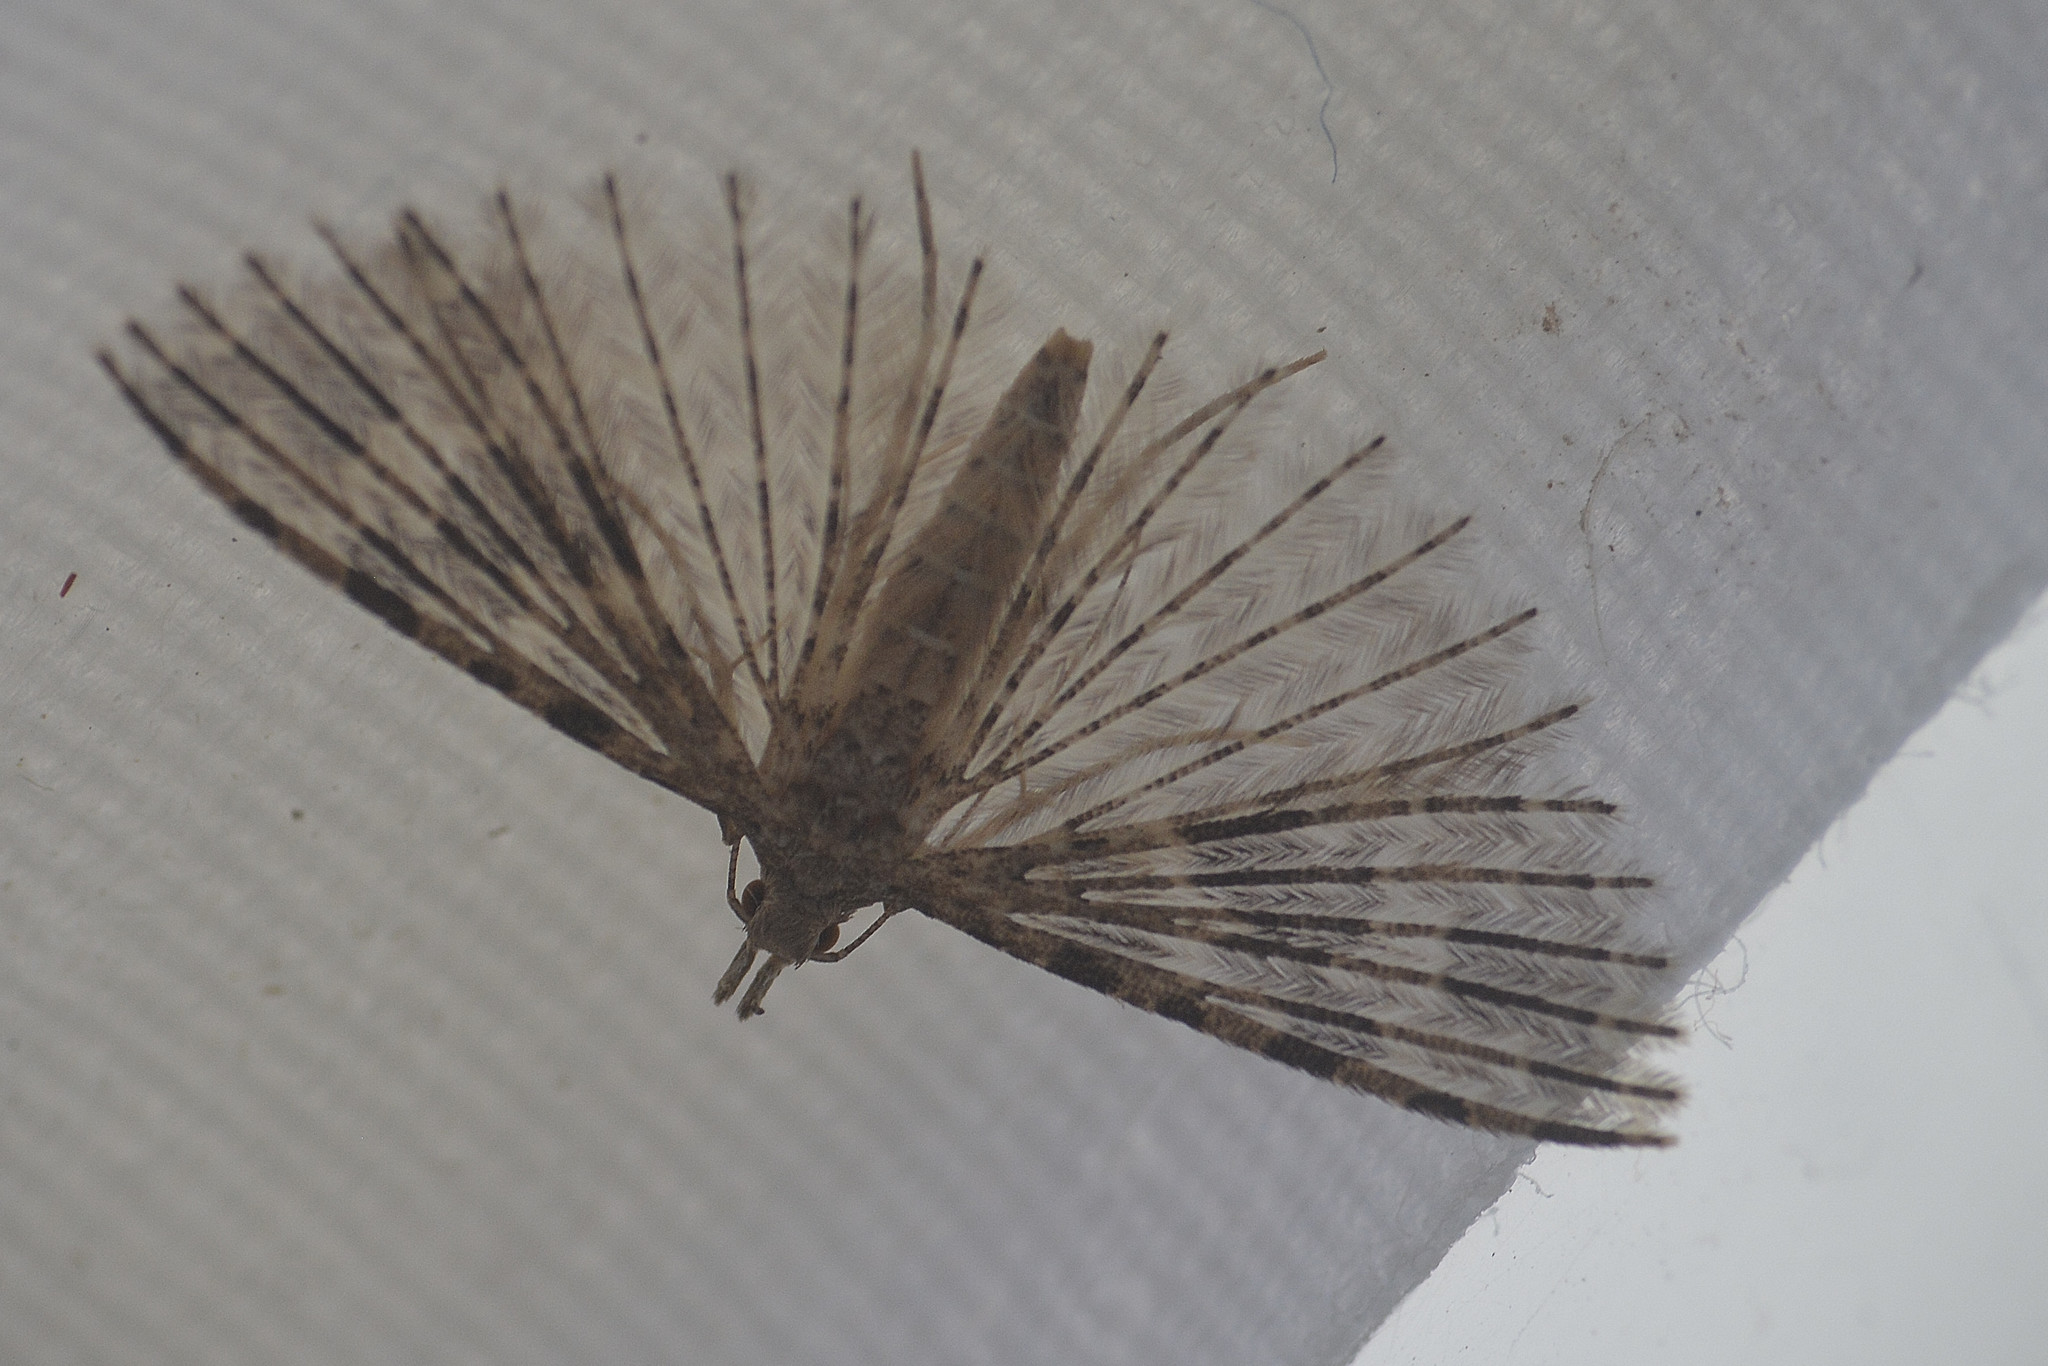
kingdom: Animalia
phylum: Arthropoda
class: Insecta
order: Lepidoptera
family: Alucitidae
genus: Alucita
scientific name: Alucita hexadactyla
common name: Twenty-plume moth
